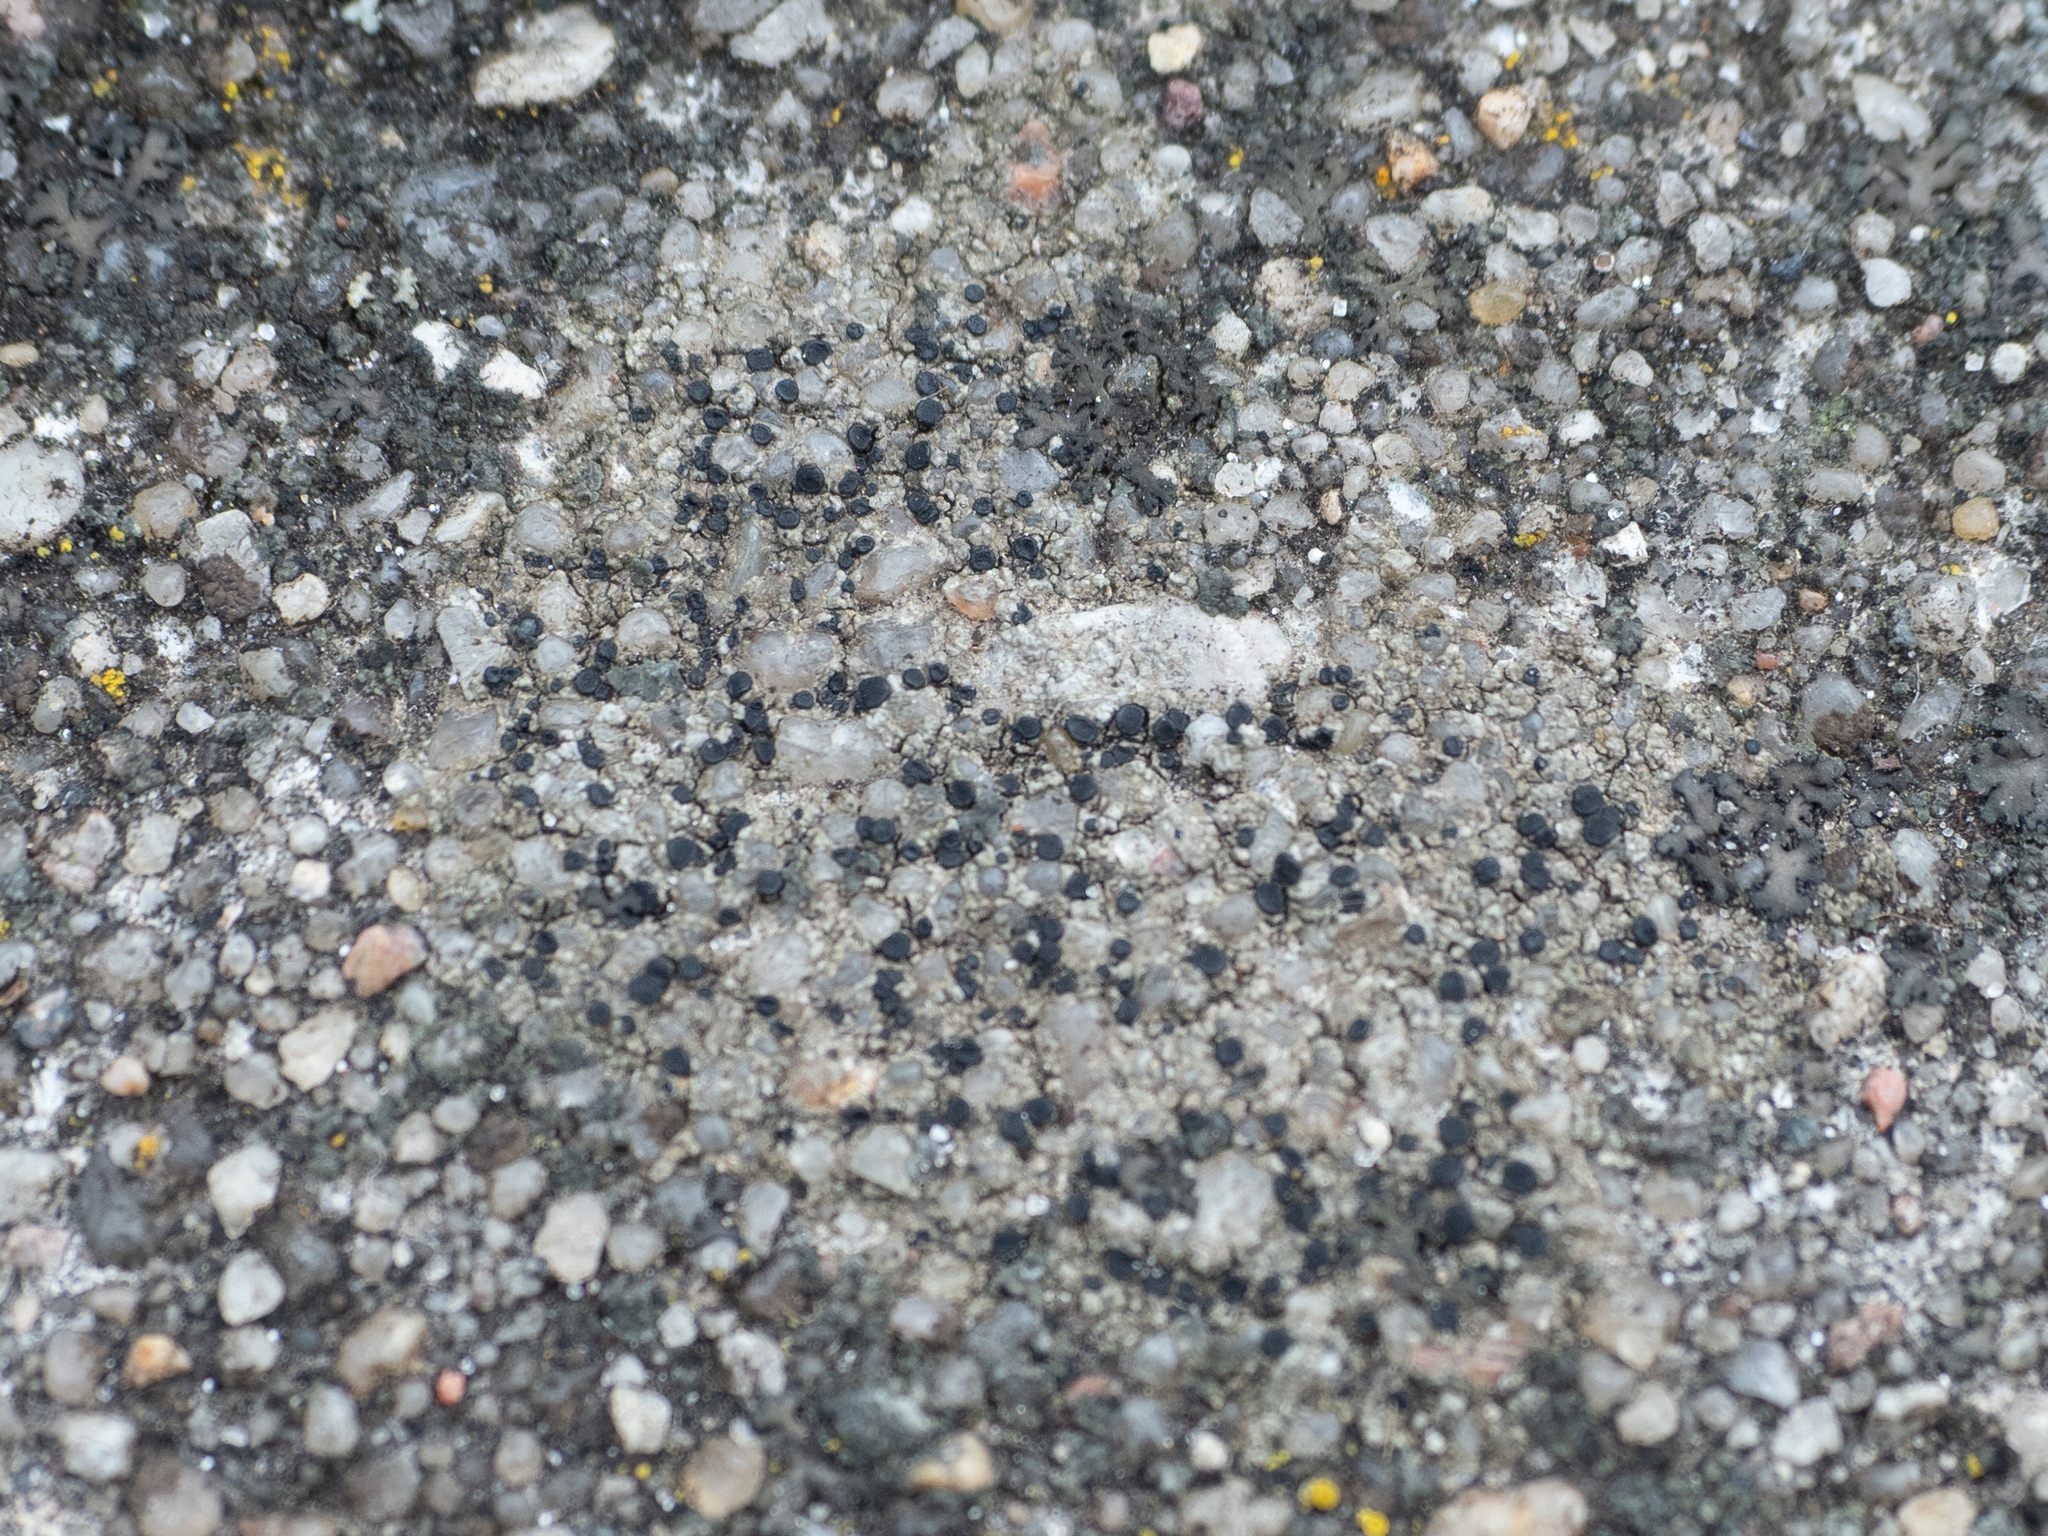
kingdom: Fungi
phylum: Ascomycota
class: Lecanoromycetes
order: Lecanorales
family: Lecanoraceae
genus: Lecidella
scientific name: Lecidella stigmatea
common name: Limestone disc lichen
